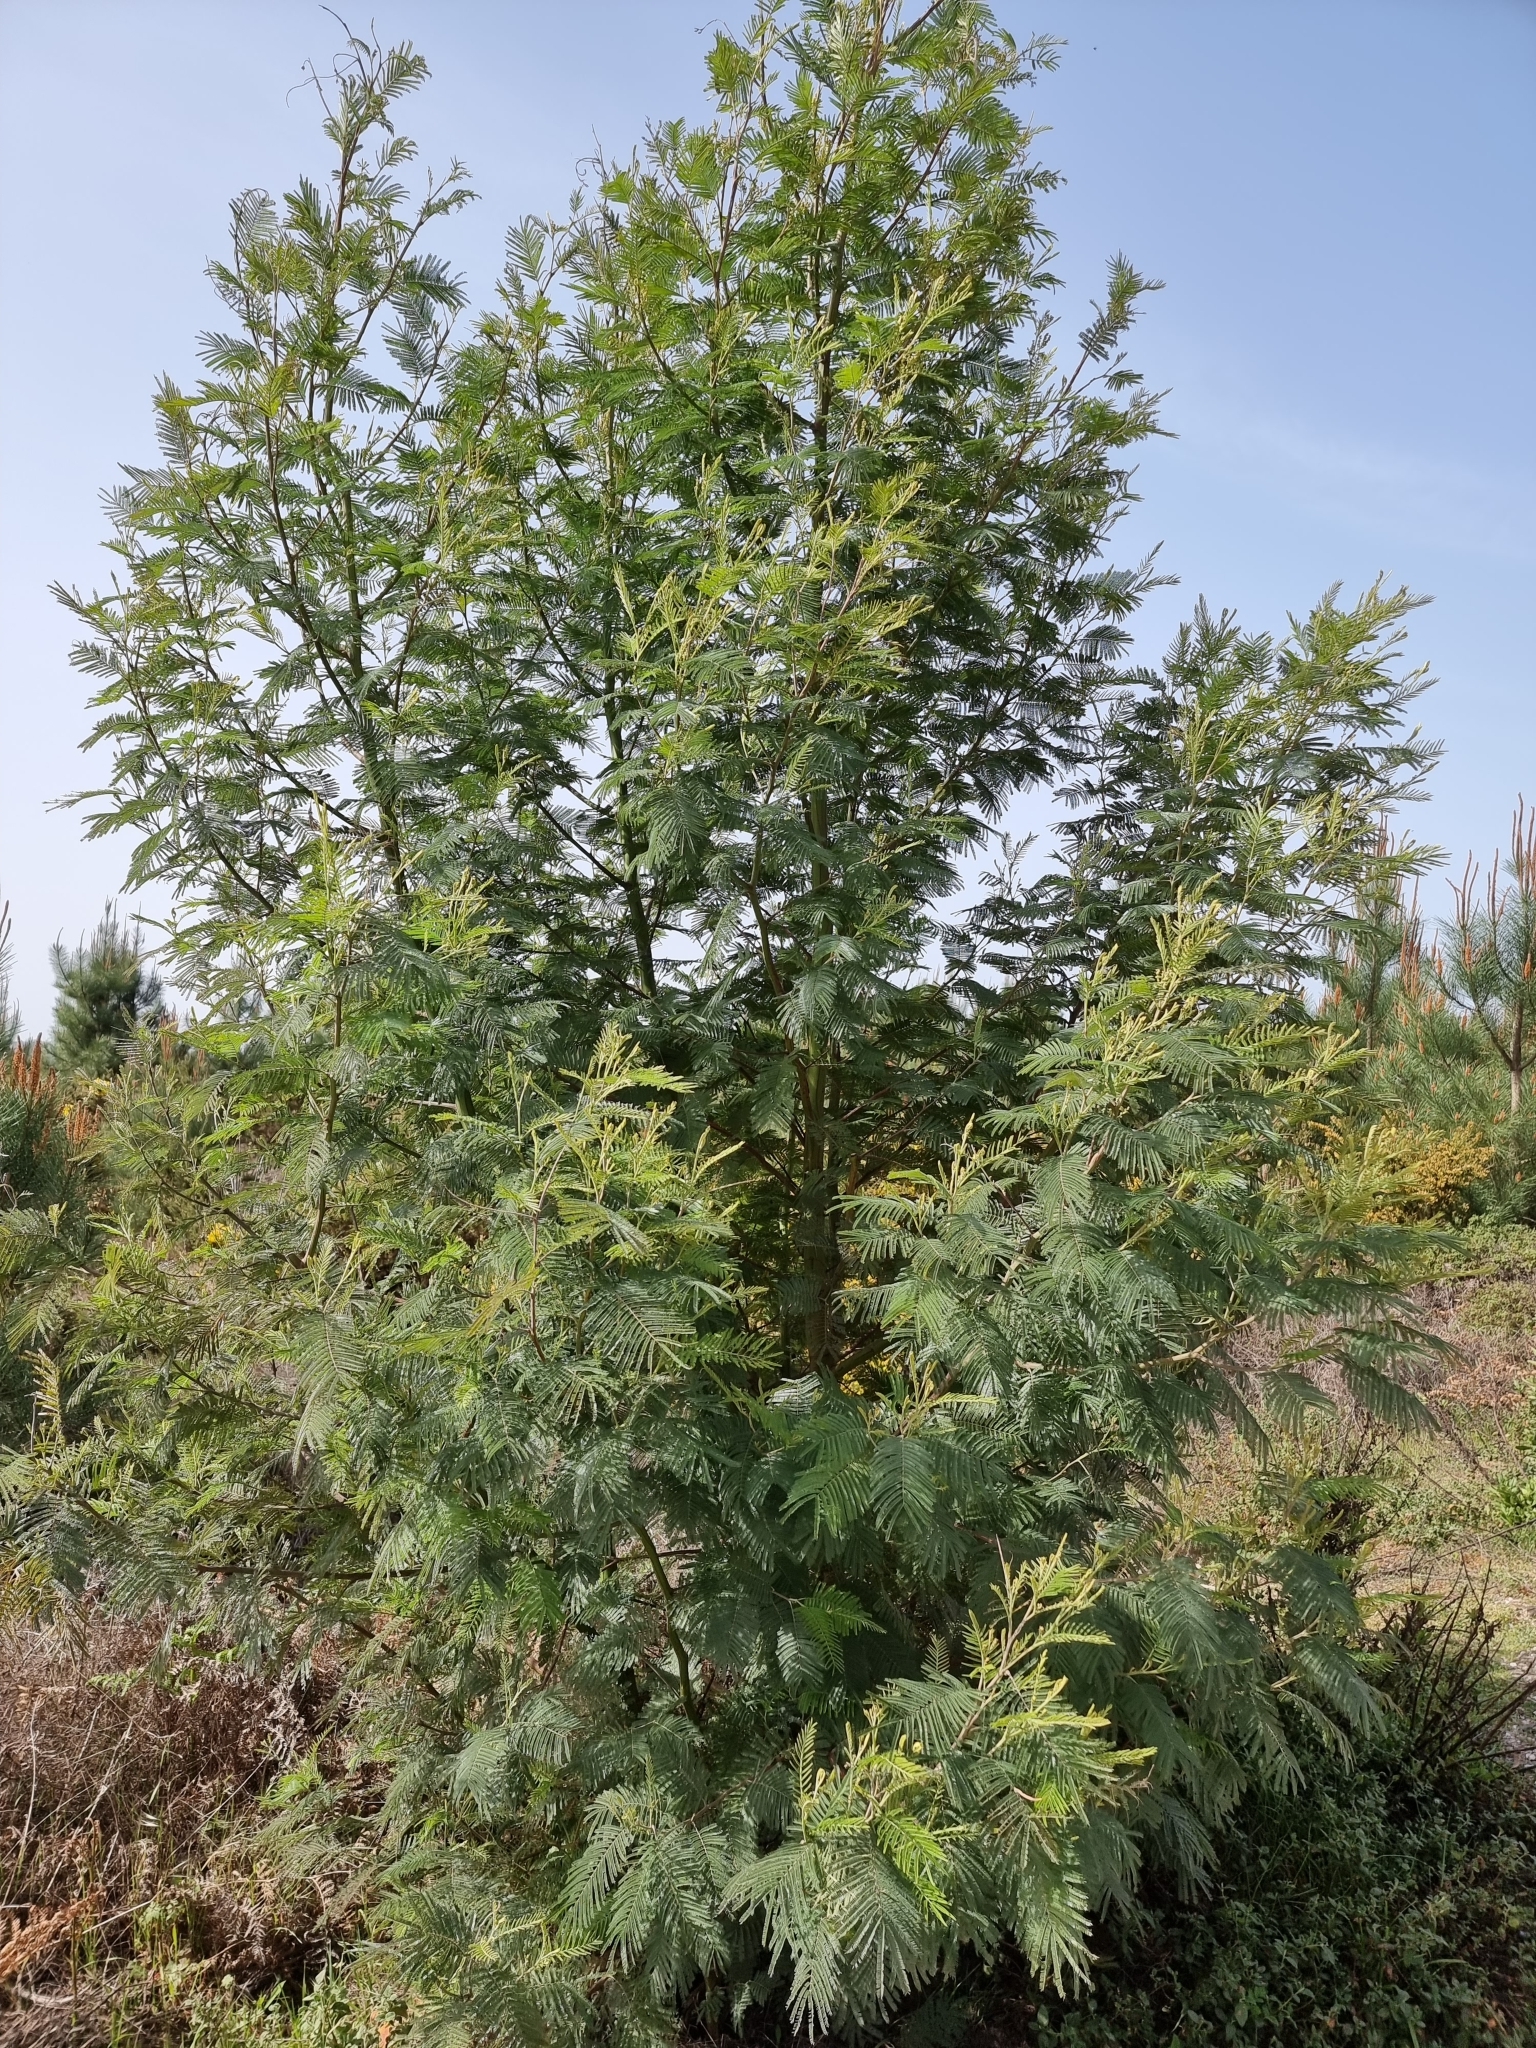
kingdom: Plantae
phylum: Tracheophyta
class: Magnoliopsida
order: Fabales
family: Fabaceae
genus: Acacia
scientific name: Acacia mearnsii
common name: Black wattle
